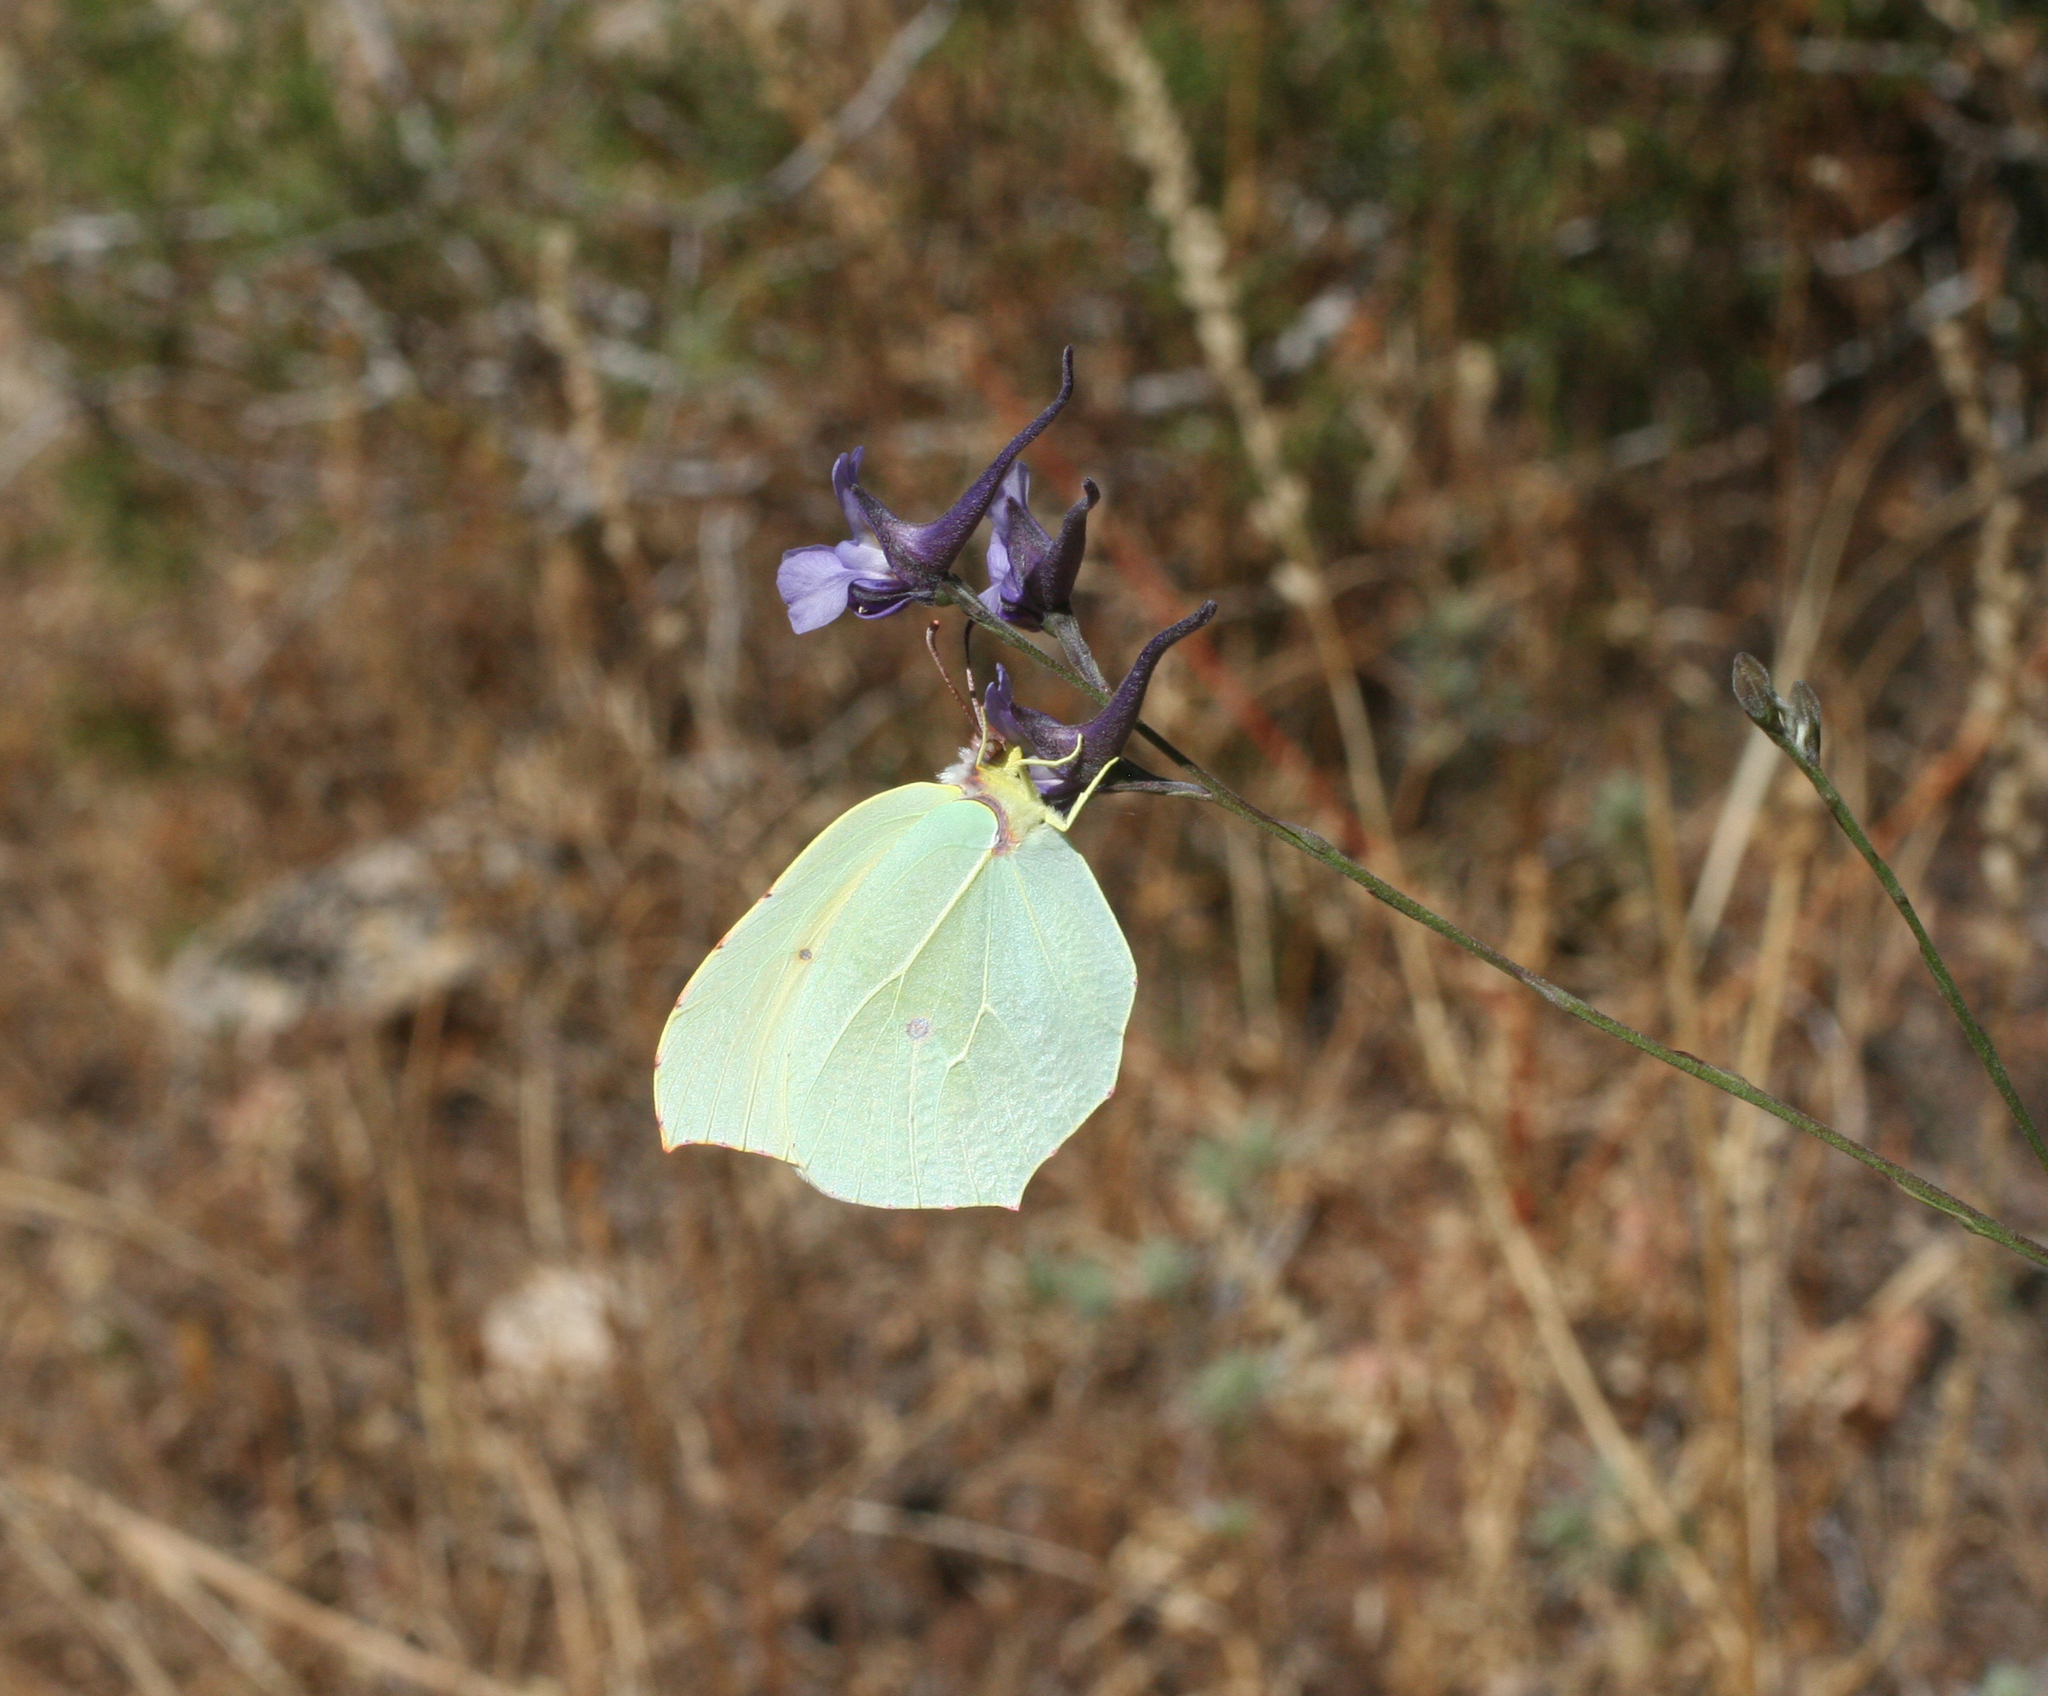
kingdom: Animalia
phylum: Arthropoda
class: Insecta
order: Lepidoptera
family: Pieridae
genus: Gonepteryx
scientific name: Gonepteryx cleopatra
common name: Cleopatra
